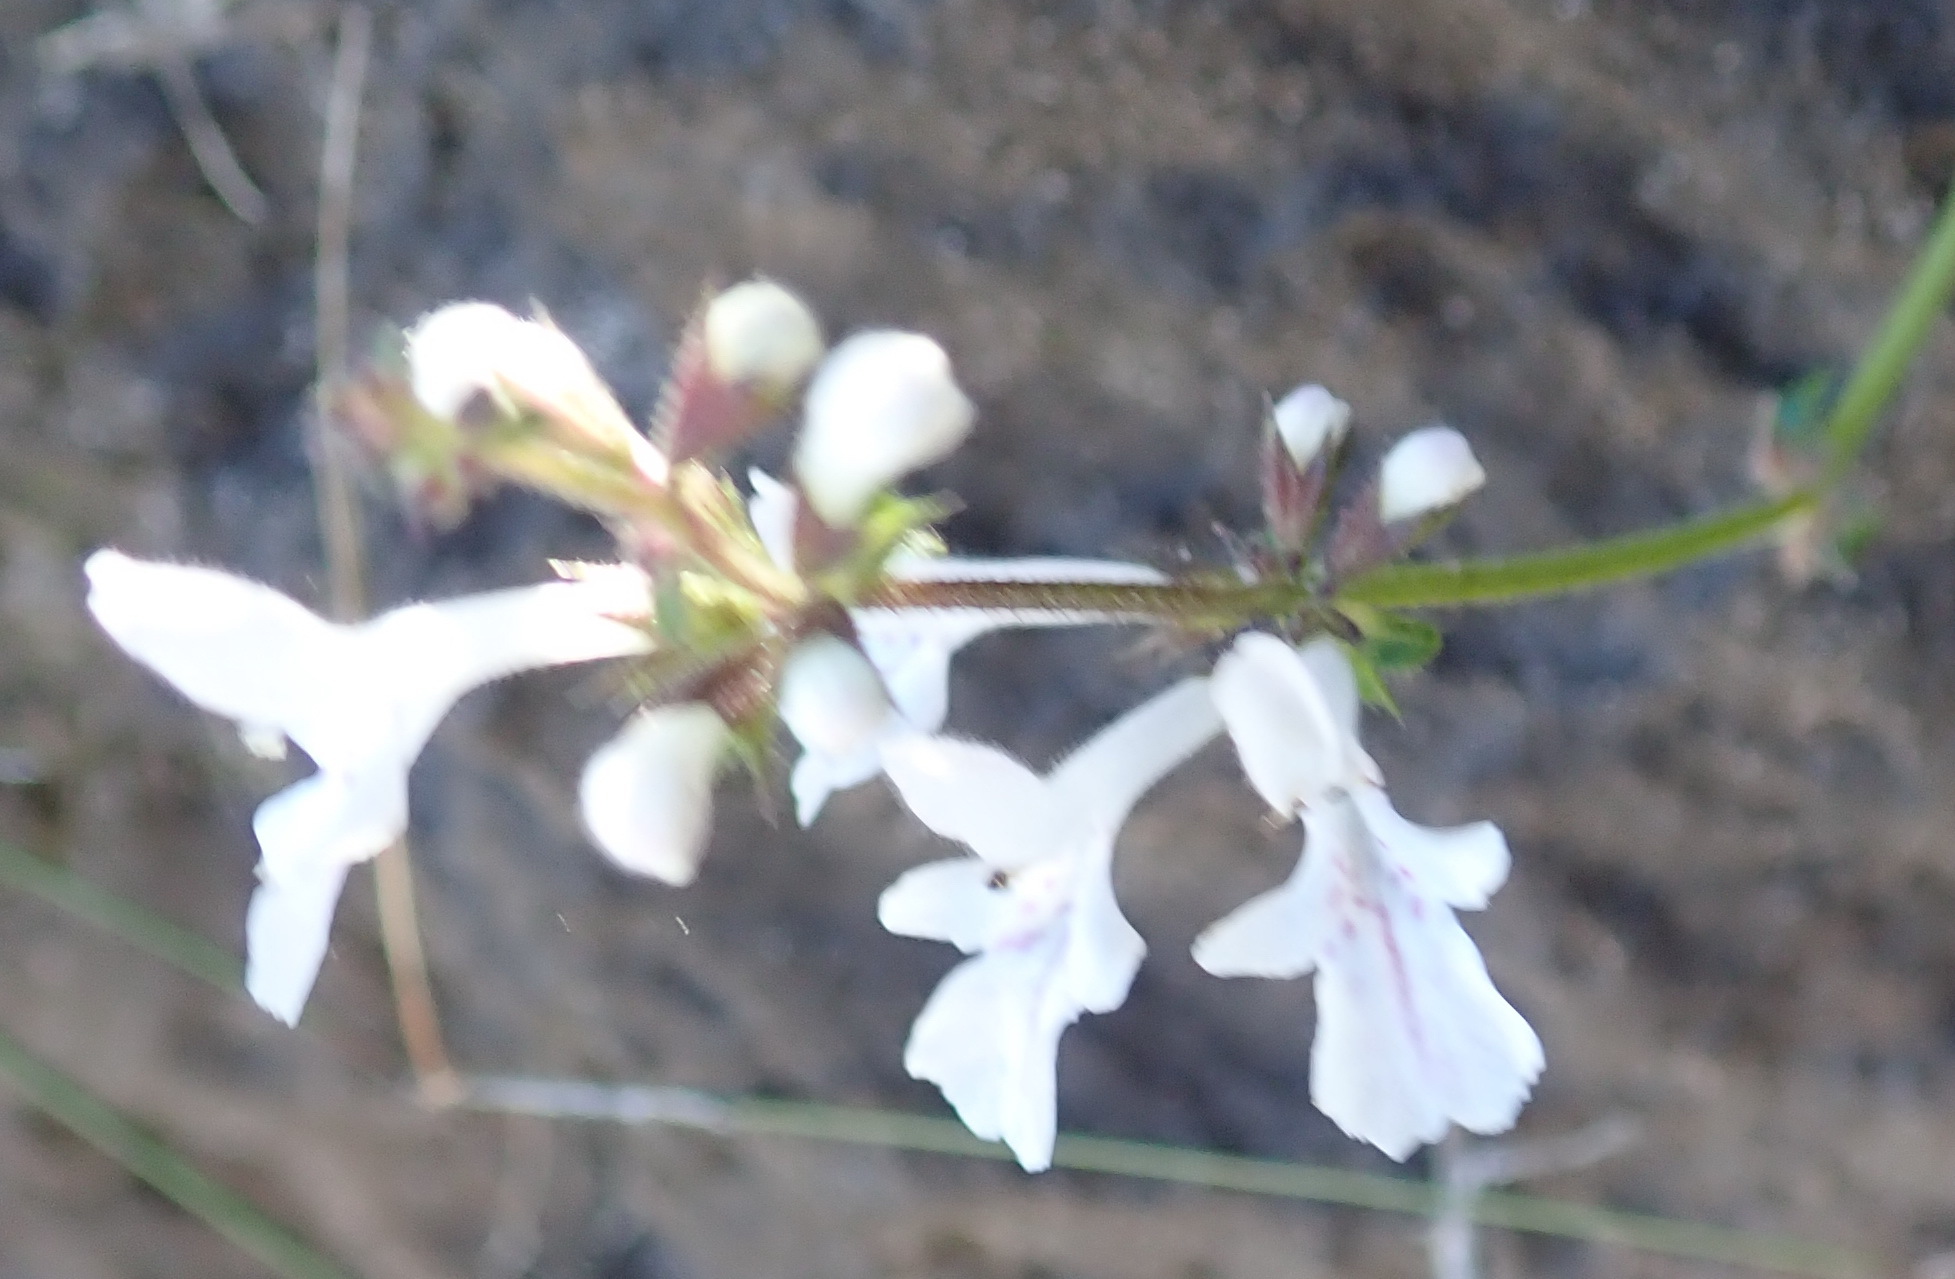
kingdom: Plantae
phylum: Tracheophyta
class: Magnoliopsida
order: Lamiales
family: Lamiaceae
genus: Stachys
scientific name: Stachys aethiopica
